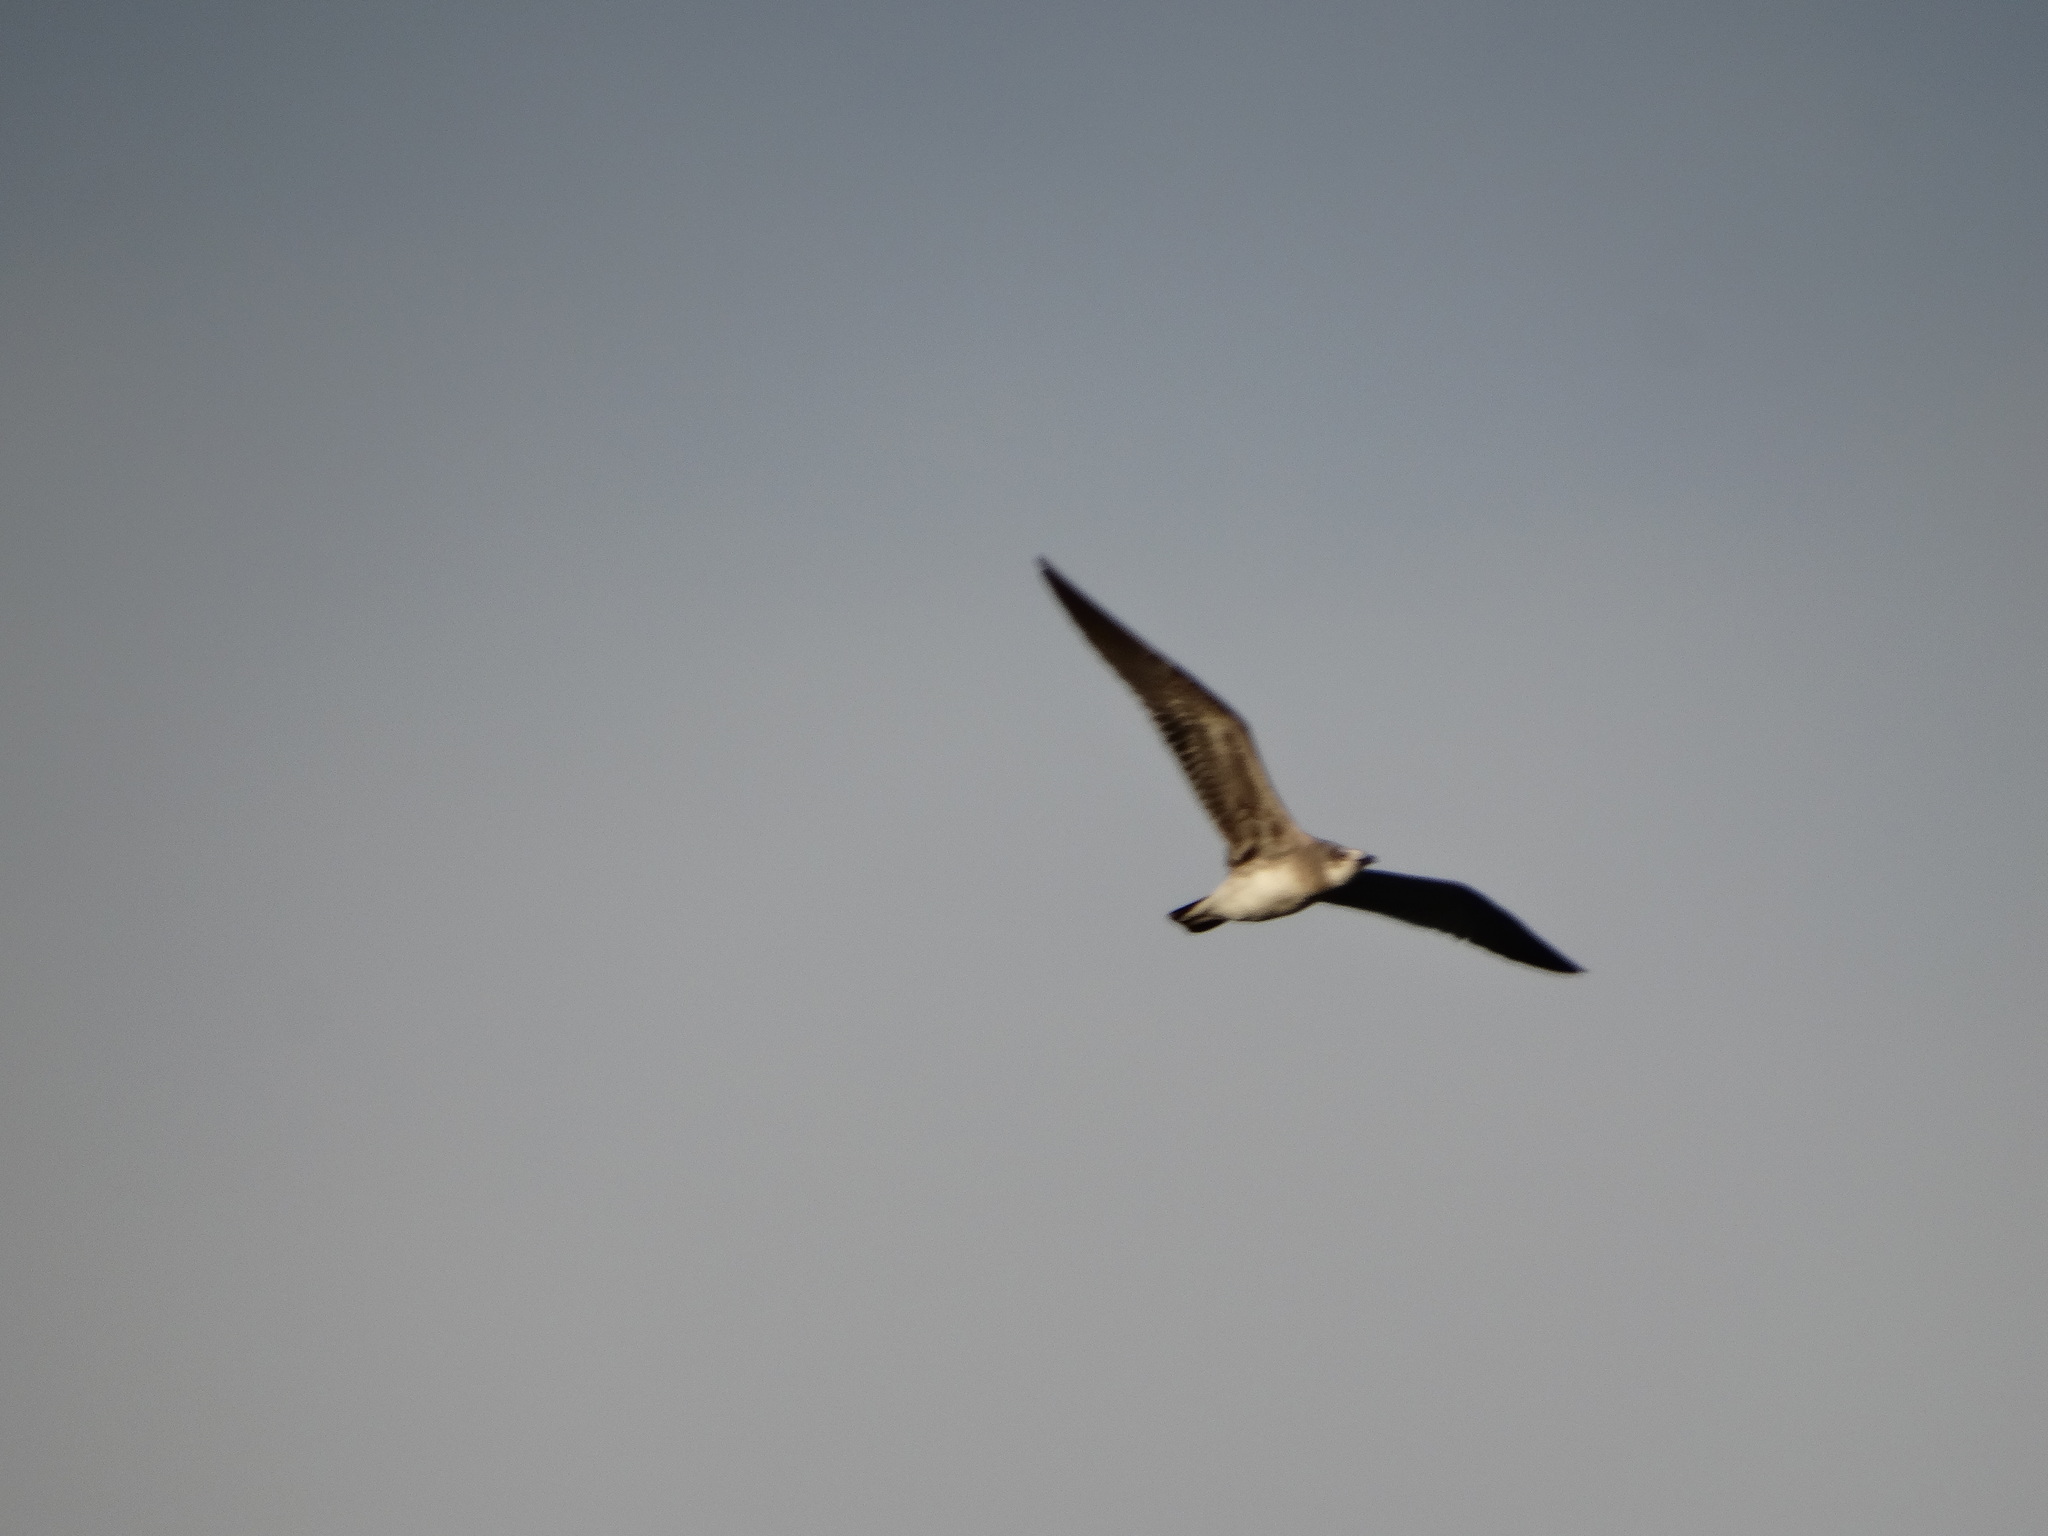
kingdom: Animalia
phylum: Chordata
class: Aves
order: Charadriiformes
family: Laridae
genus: Leucophaeus
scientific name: Leucophaeus atricilla
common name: Laughing gull
